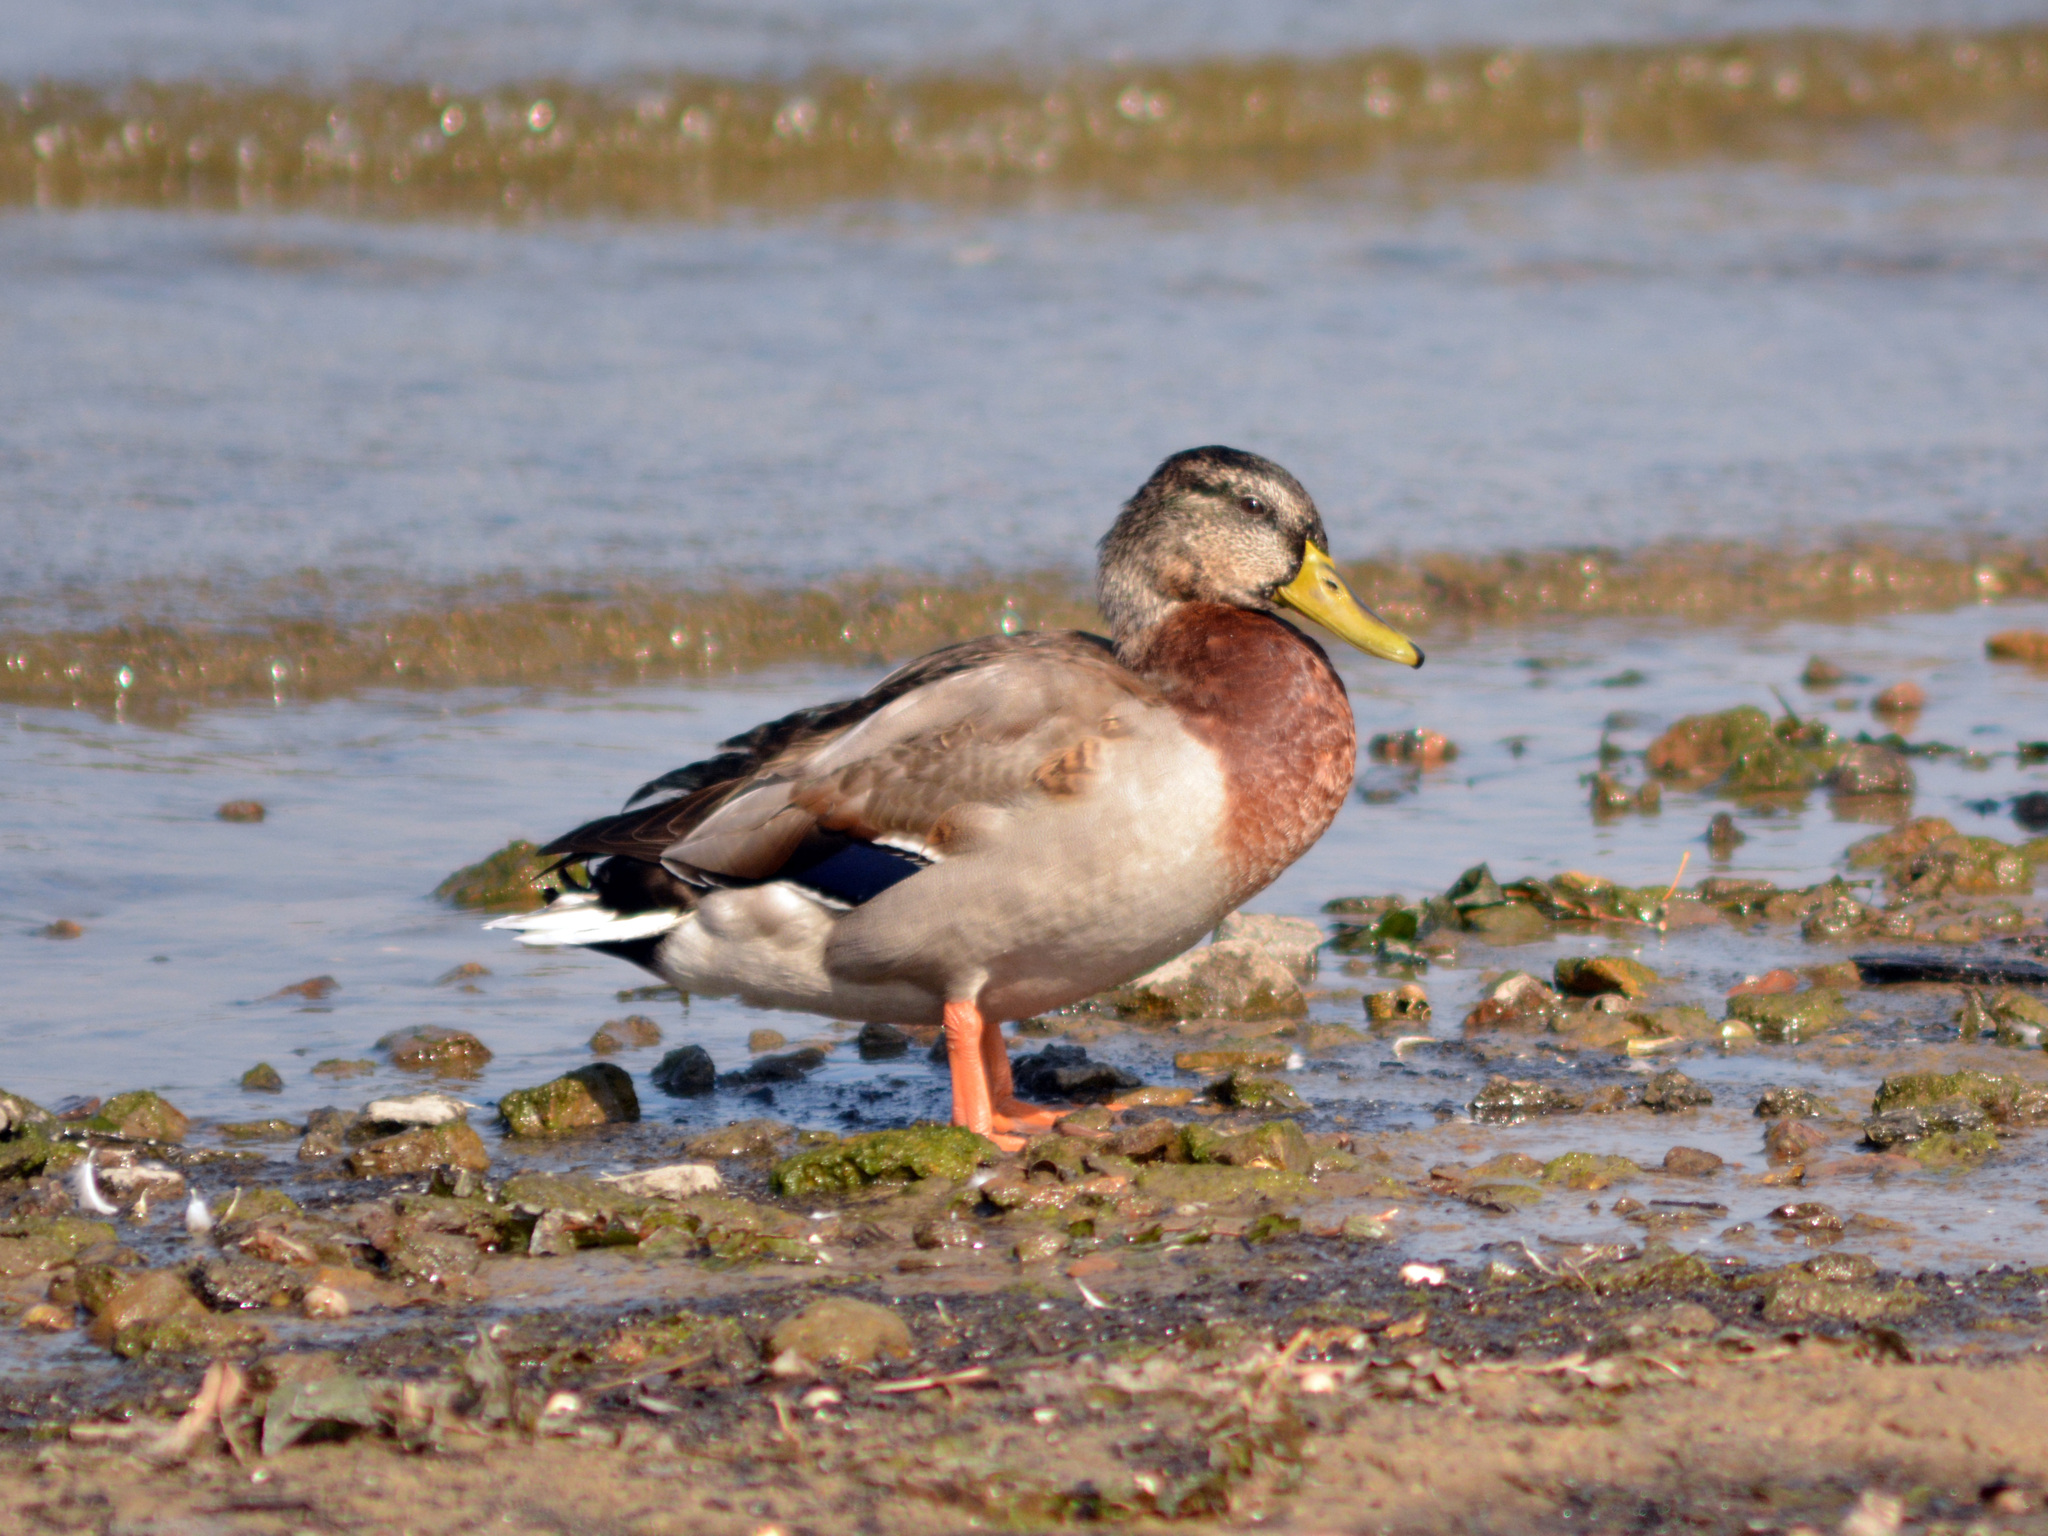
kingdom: Animalia
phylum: Chordata
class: Aves
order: Anseriformes
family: Anatidae
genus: Anas
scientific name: Anas platyrhynchos
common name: Mallard
